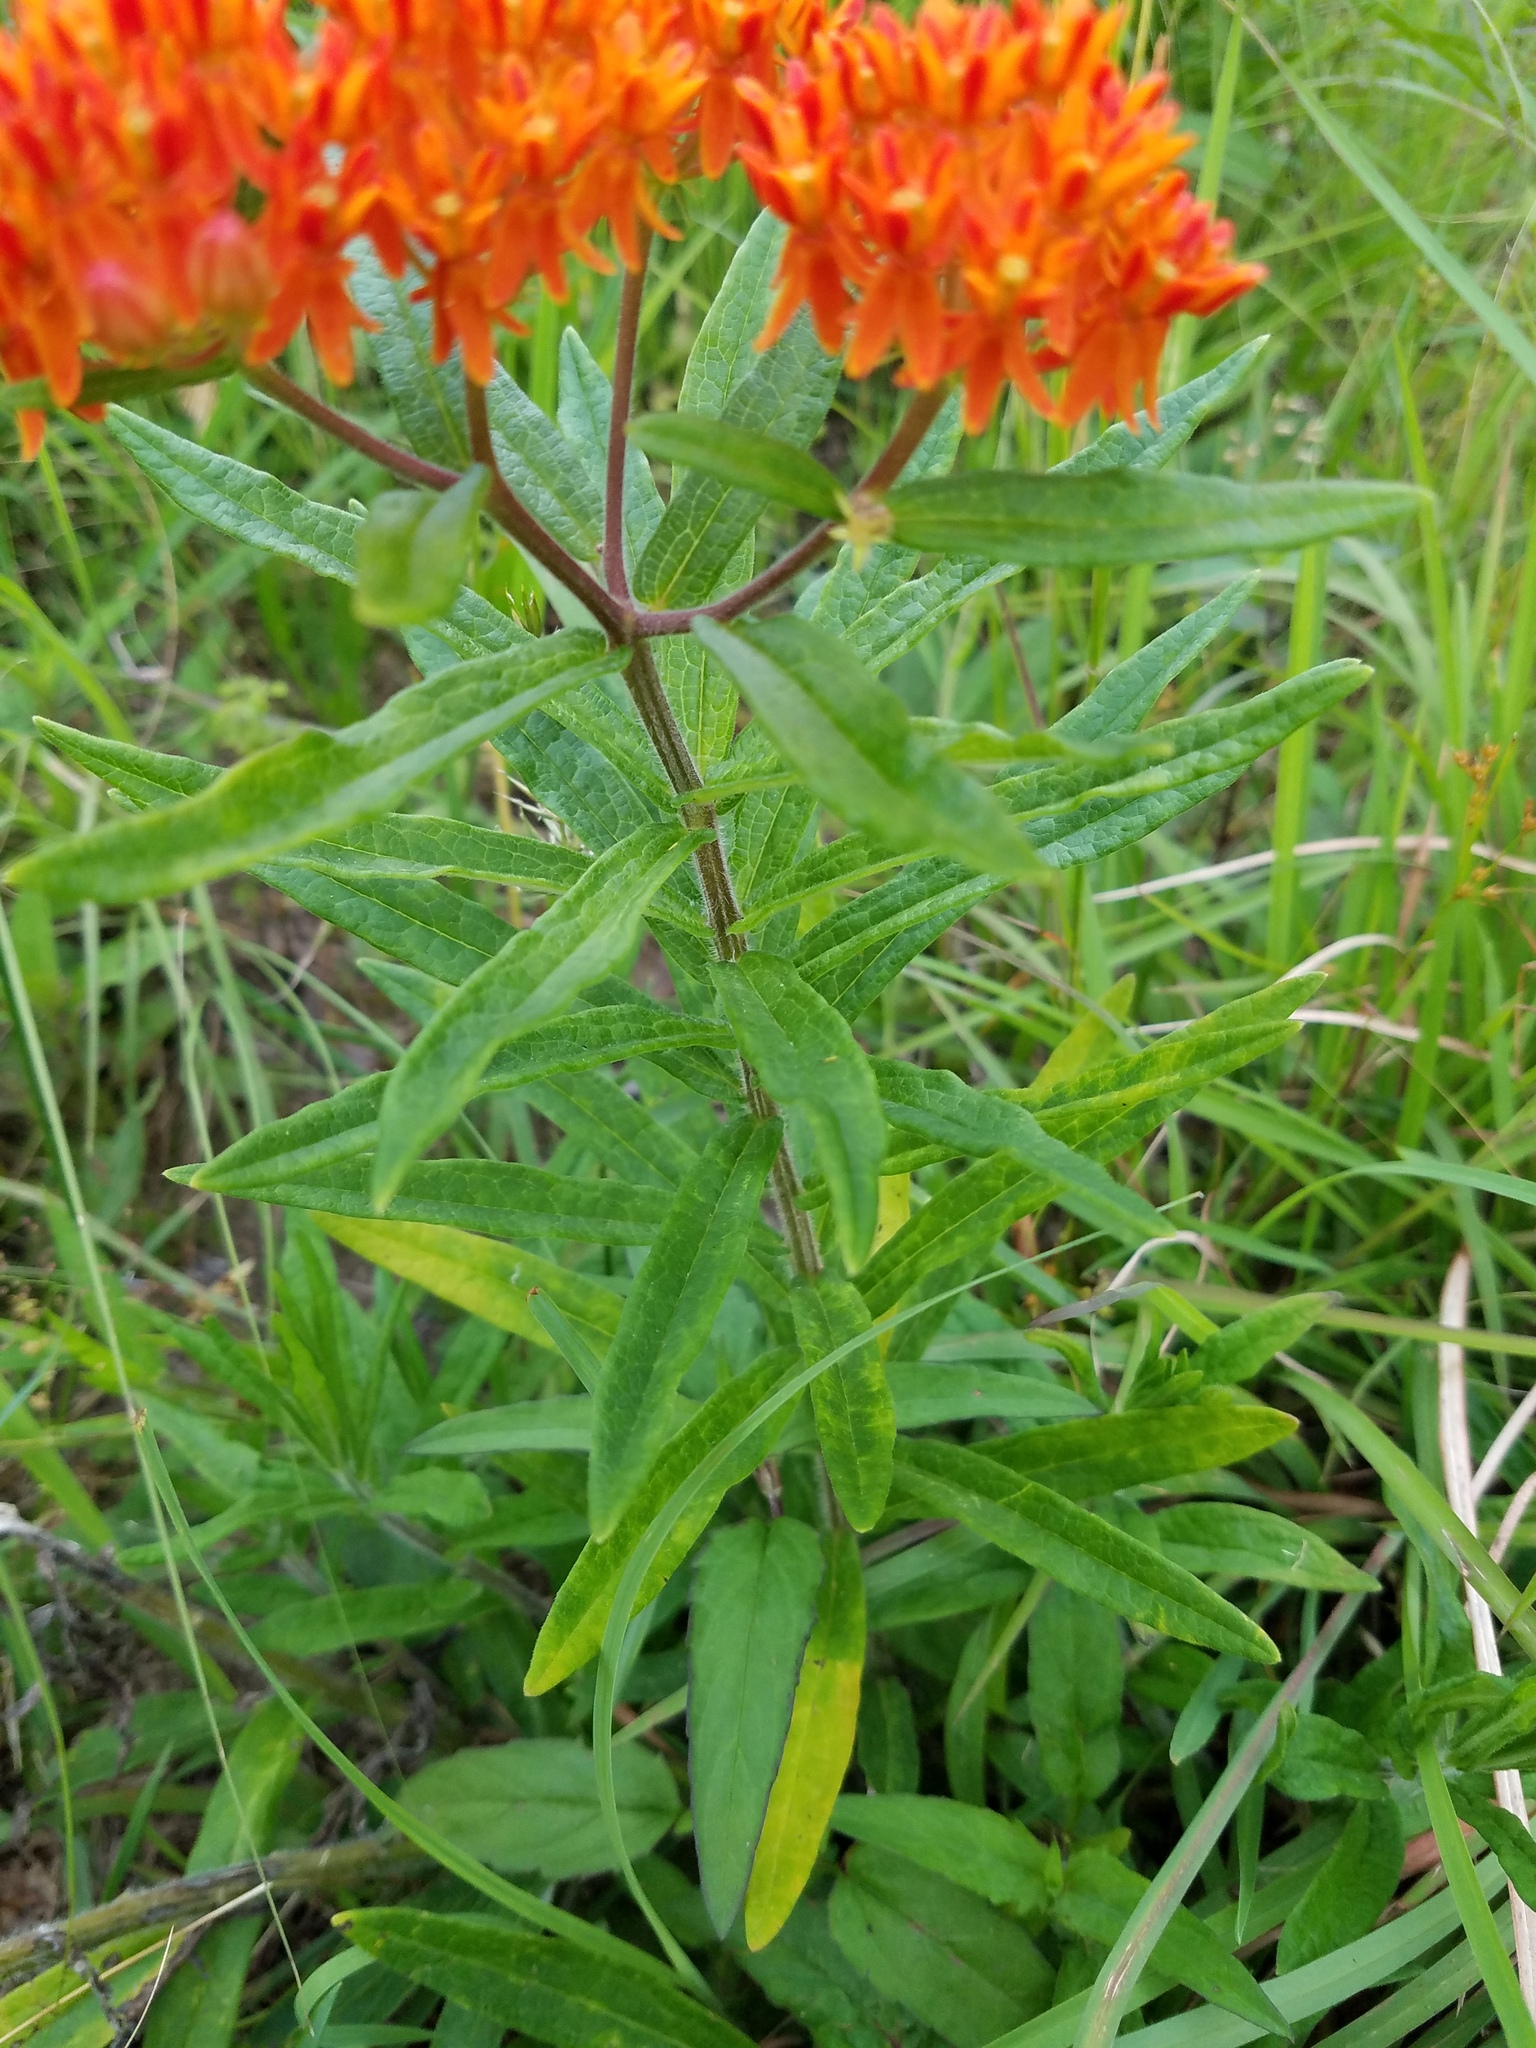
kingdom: Plantae
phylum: Tracheophyta
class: Magnoliopsida
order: Gentianales
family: Apocynaceae
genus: Asclepias
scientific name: Asclepias tuberosa
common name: Butterfly milkweed
